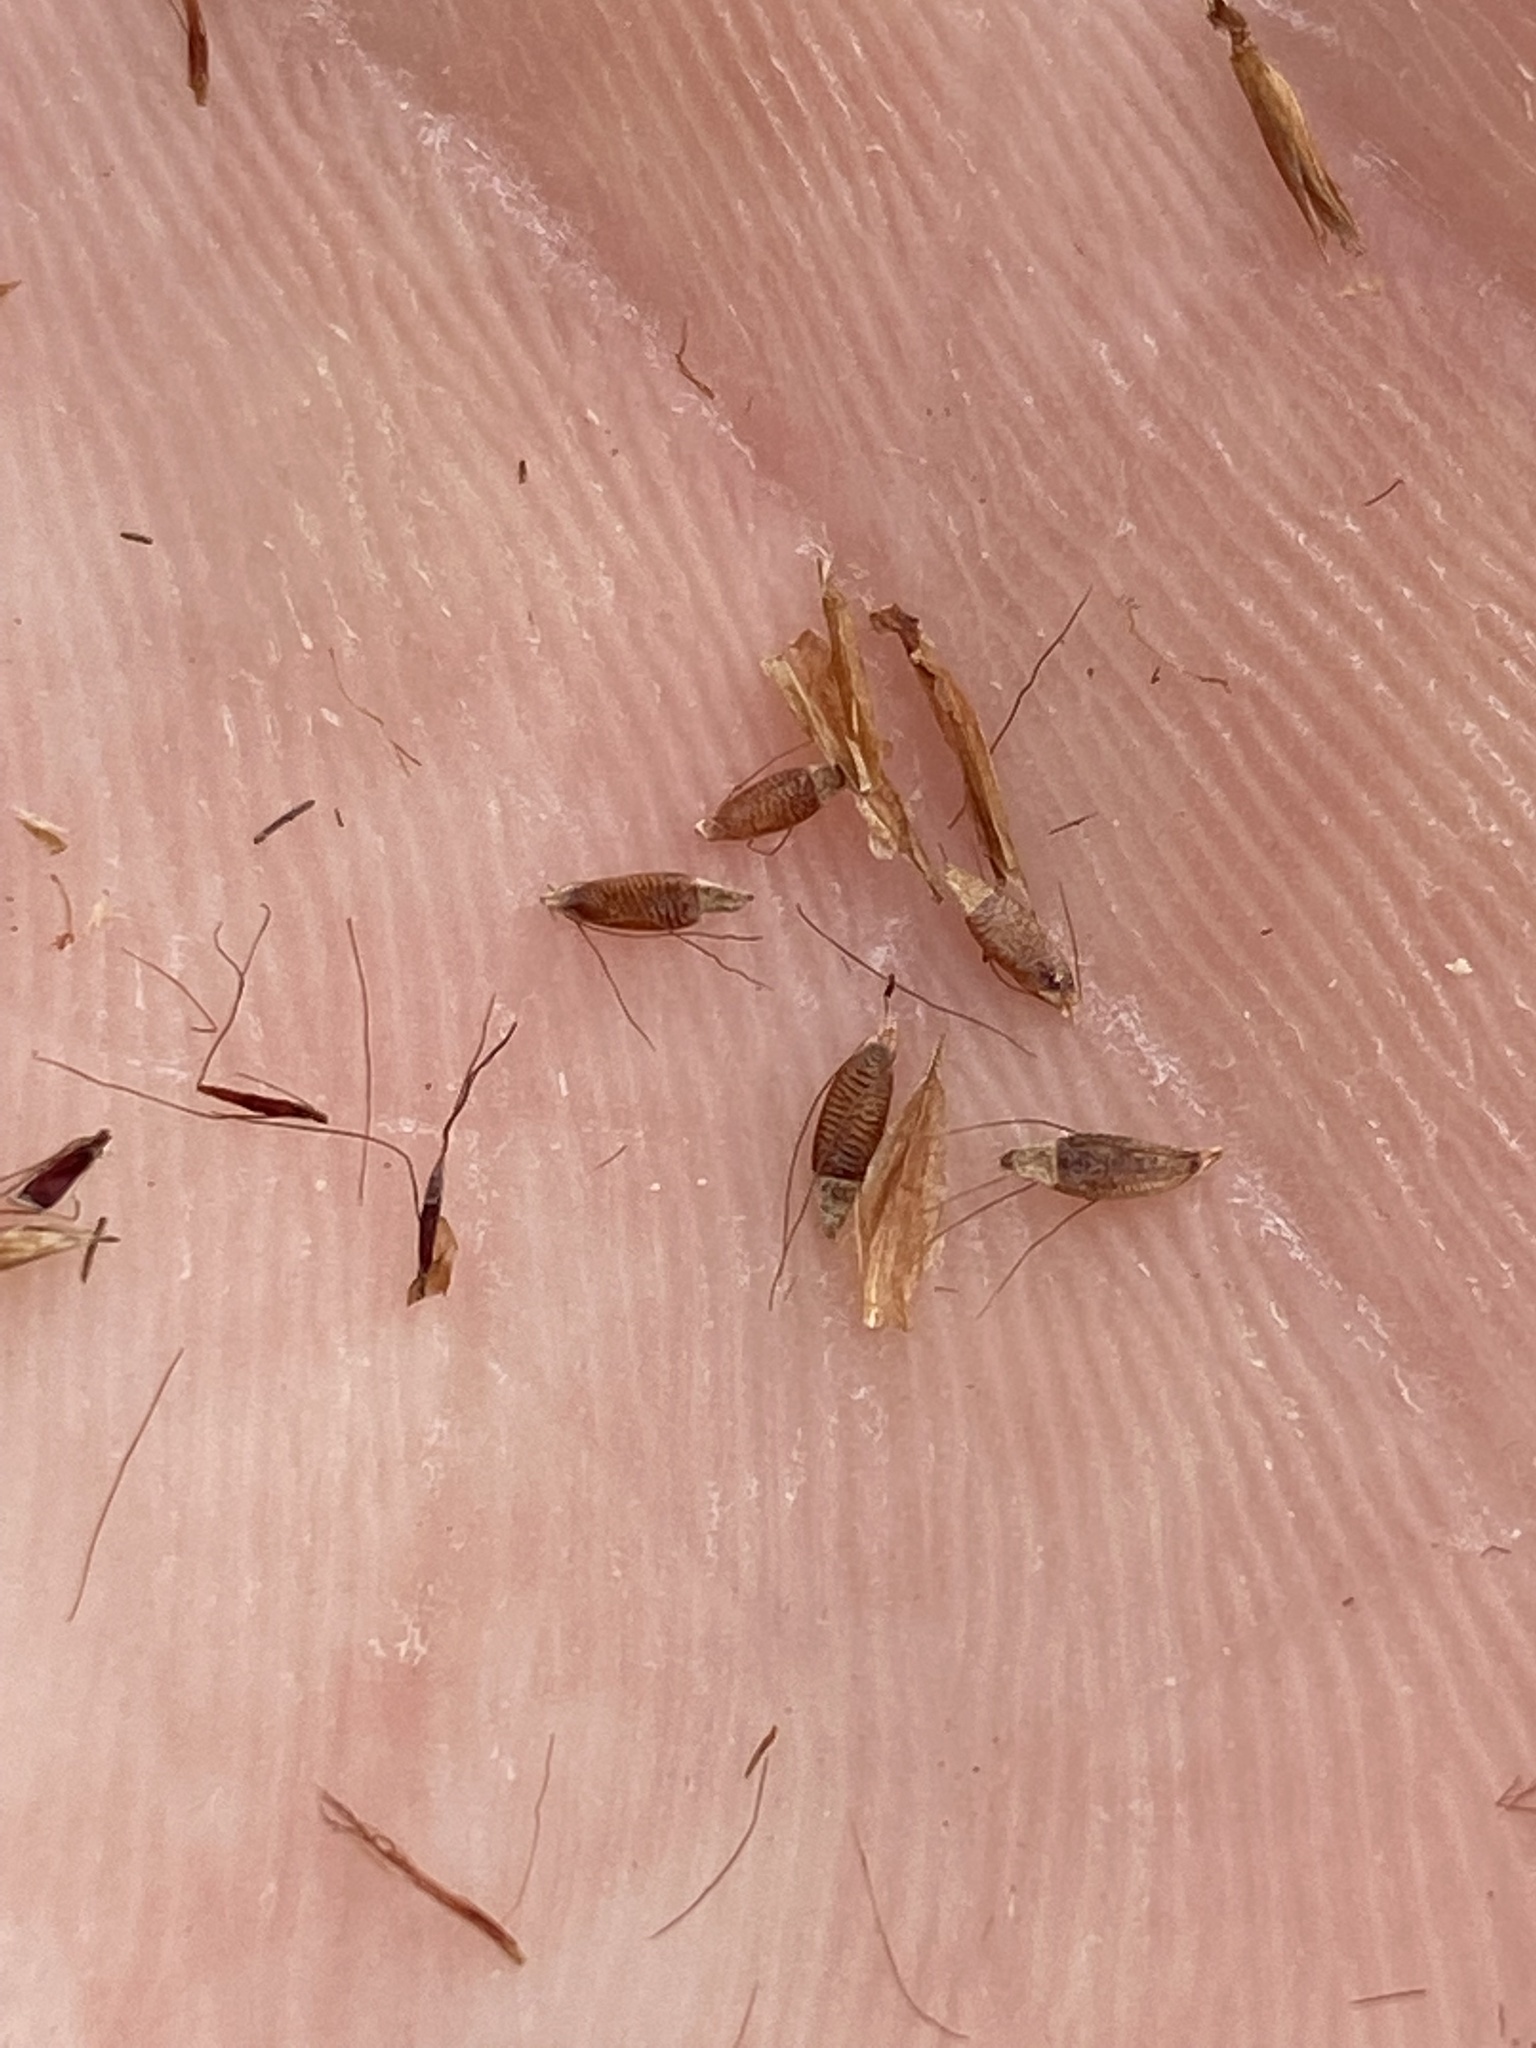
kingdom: Plantae
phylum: Tracheophyta
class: Liliopsida
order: Poales
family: Cyperaceae
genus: Rhynchospora
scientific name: Rhynchospora inexpansa
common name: Nodding beaksedge
